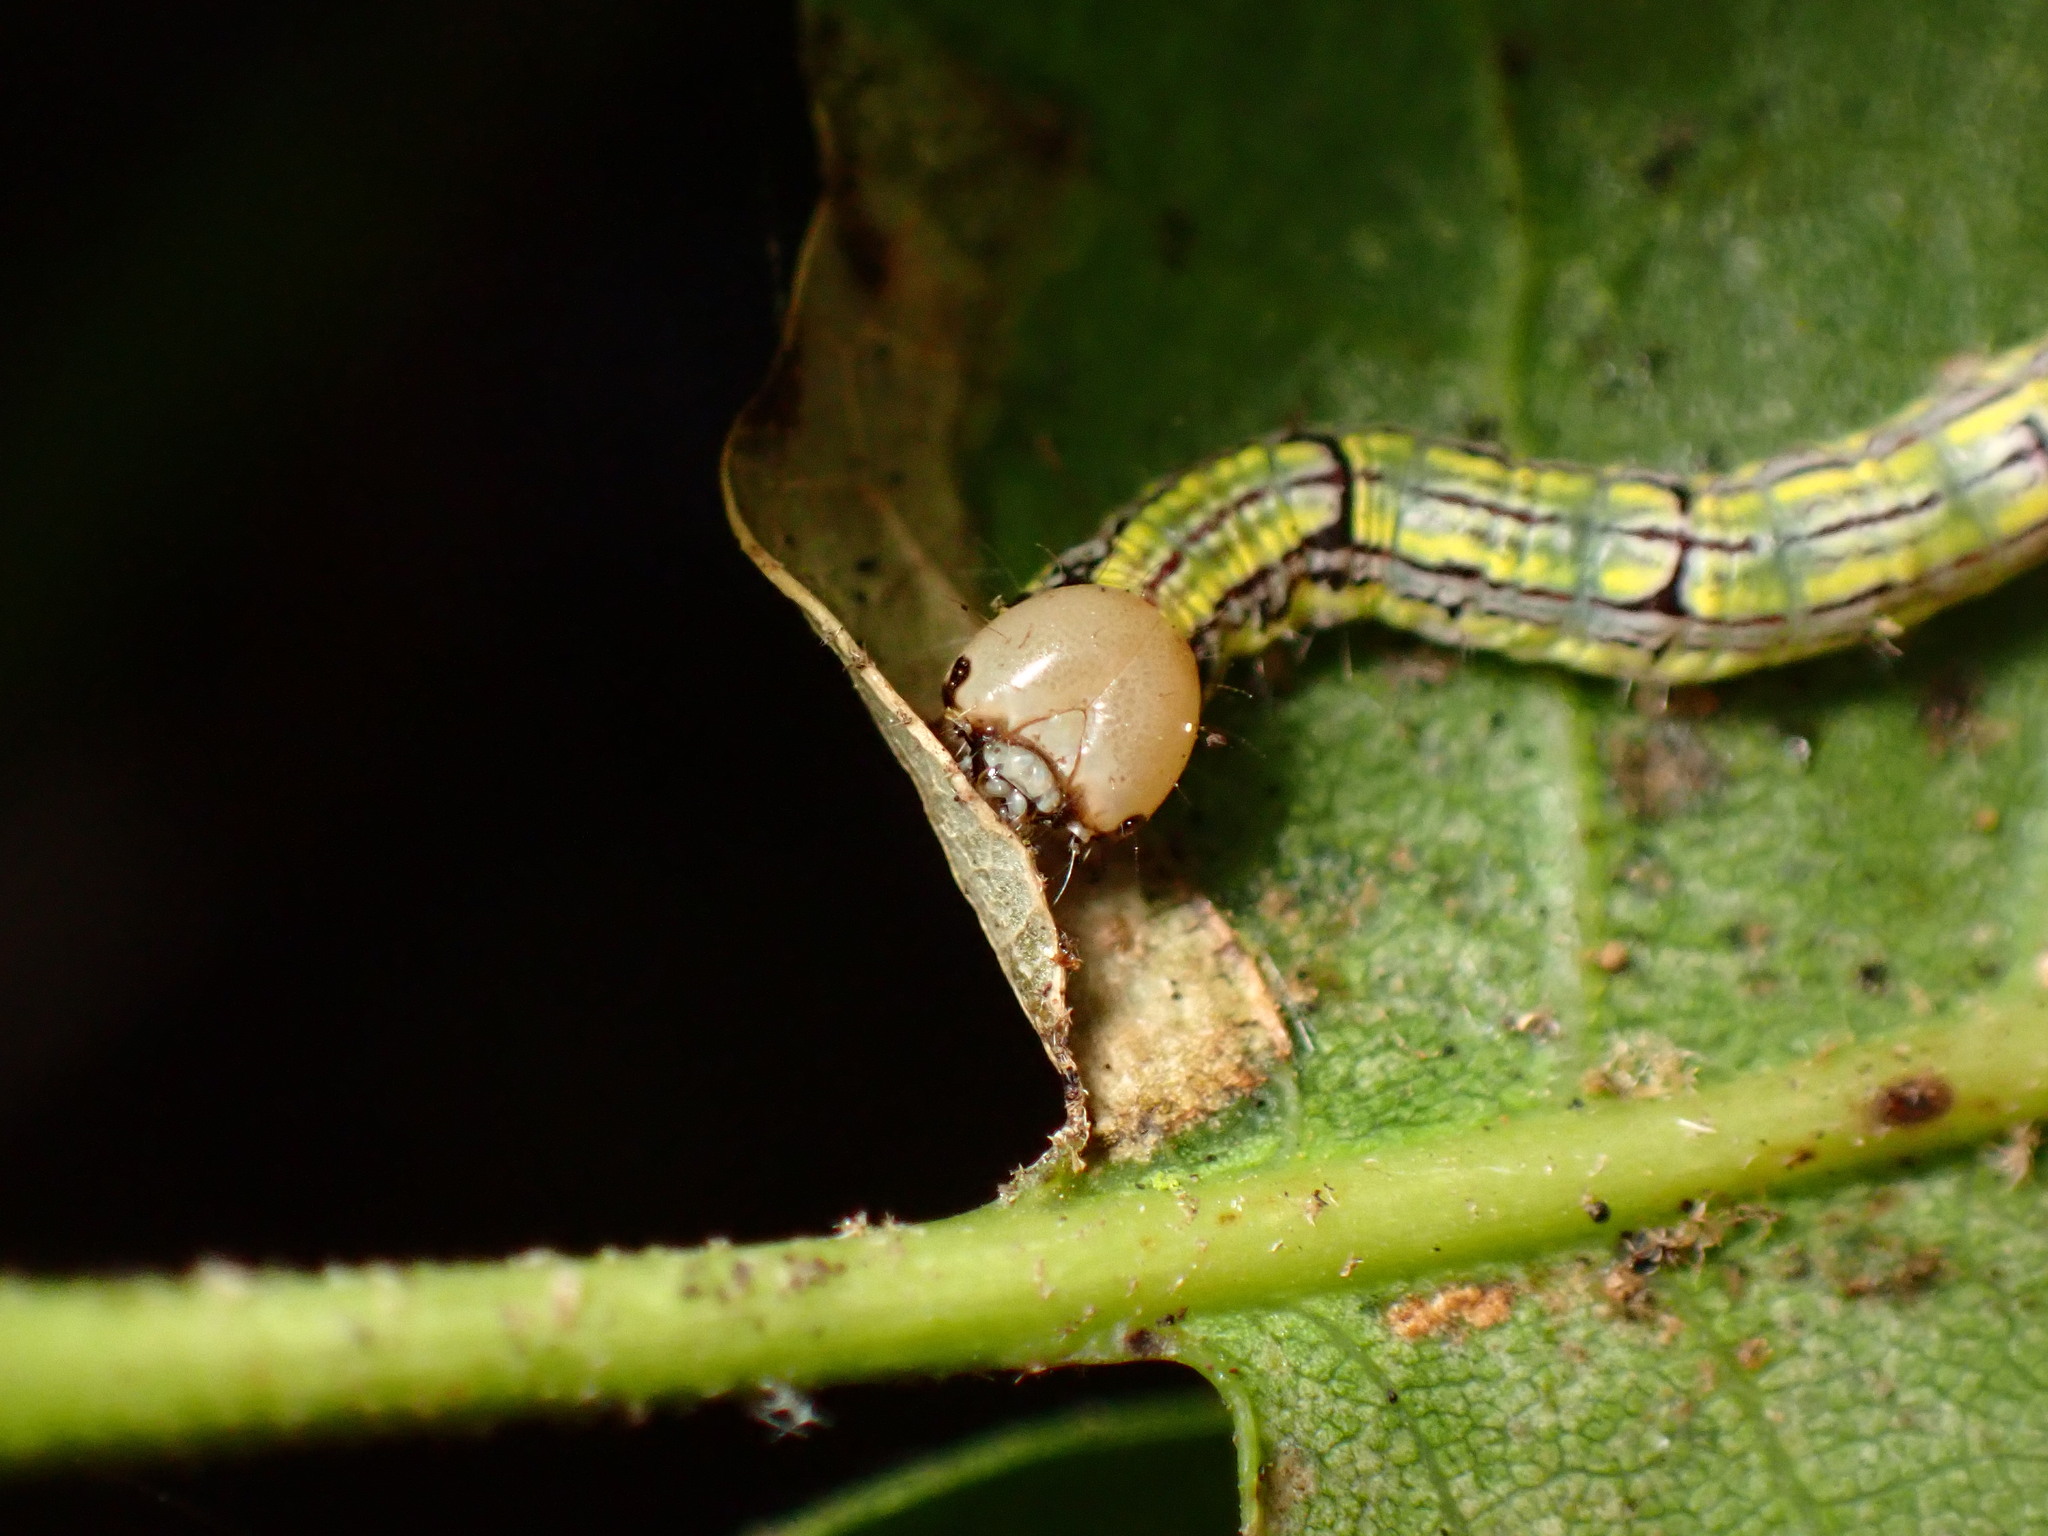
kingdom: Animalia
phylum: Arthropoda
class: Insecta
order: Lepidoptera
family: Notodontidae
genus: Phryganidia
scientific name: Phryganidia californica
